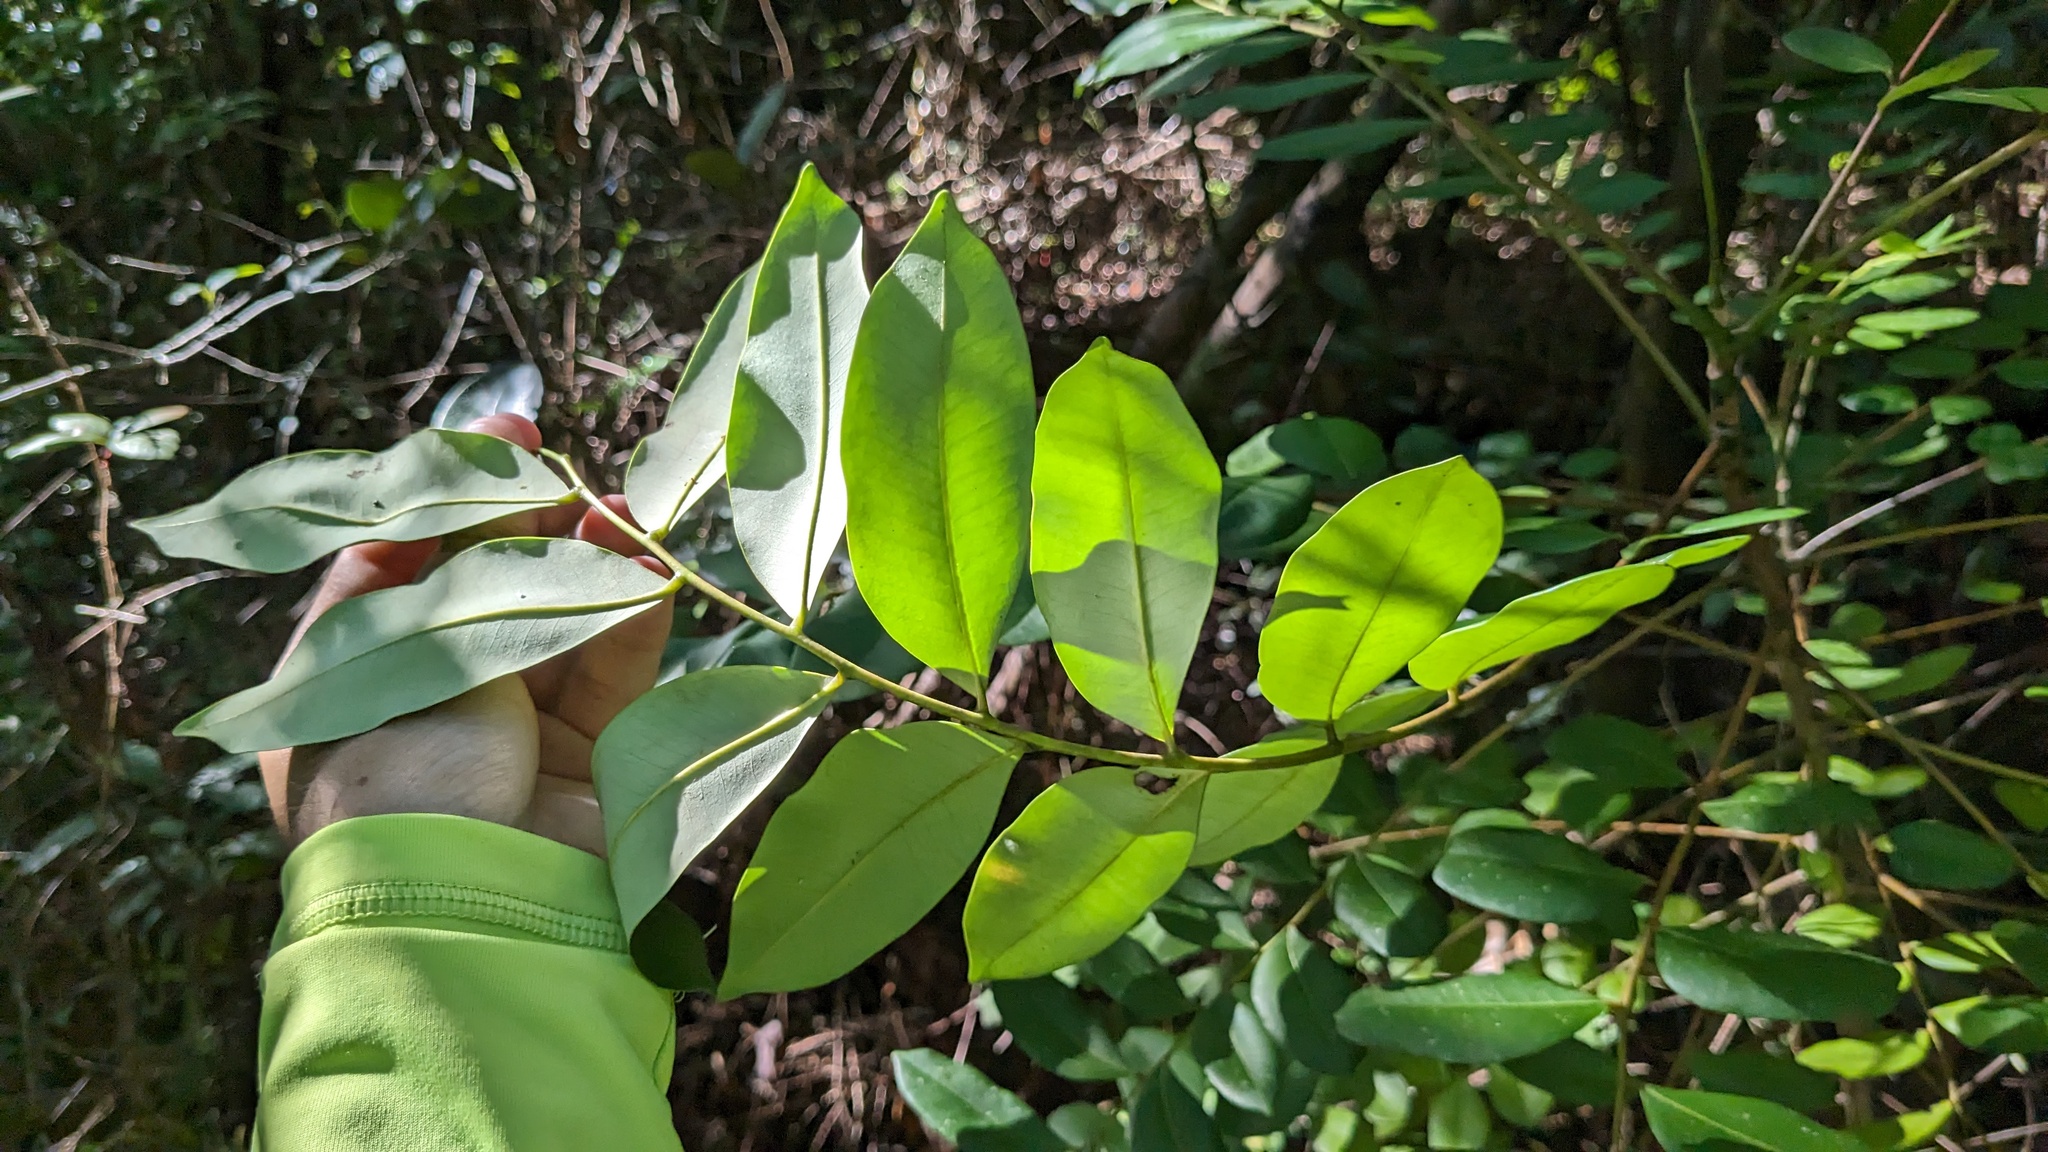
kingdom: Plantae
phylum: Tracheophyta
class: Magnoliopsida
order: Sapindales
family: Simaroubaceae
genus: Simarouba
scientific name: Simarouba glauca
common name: Dysentery-bark
